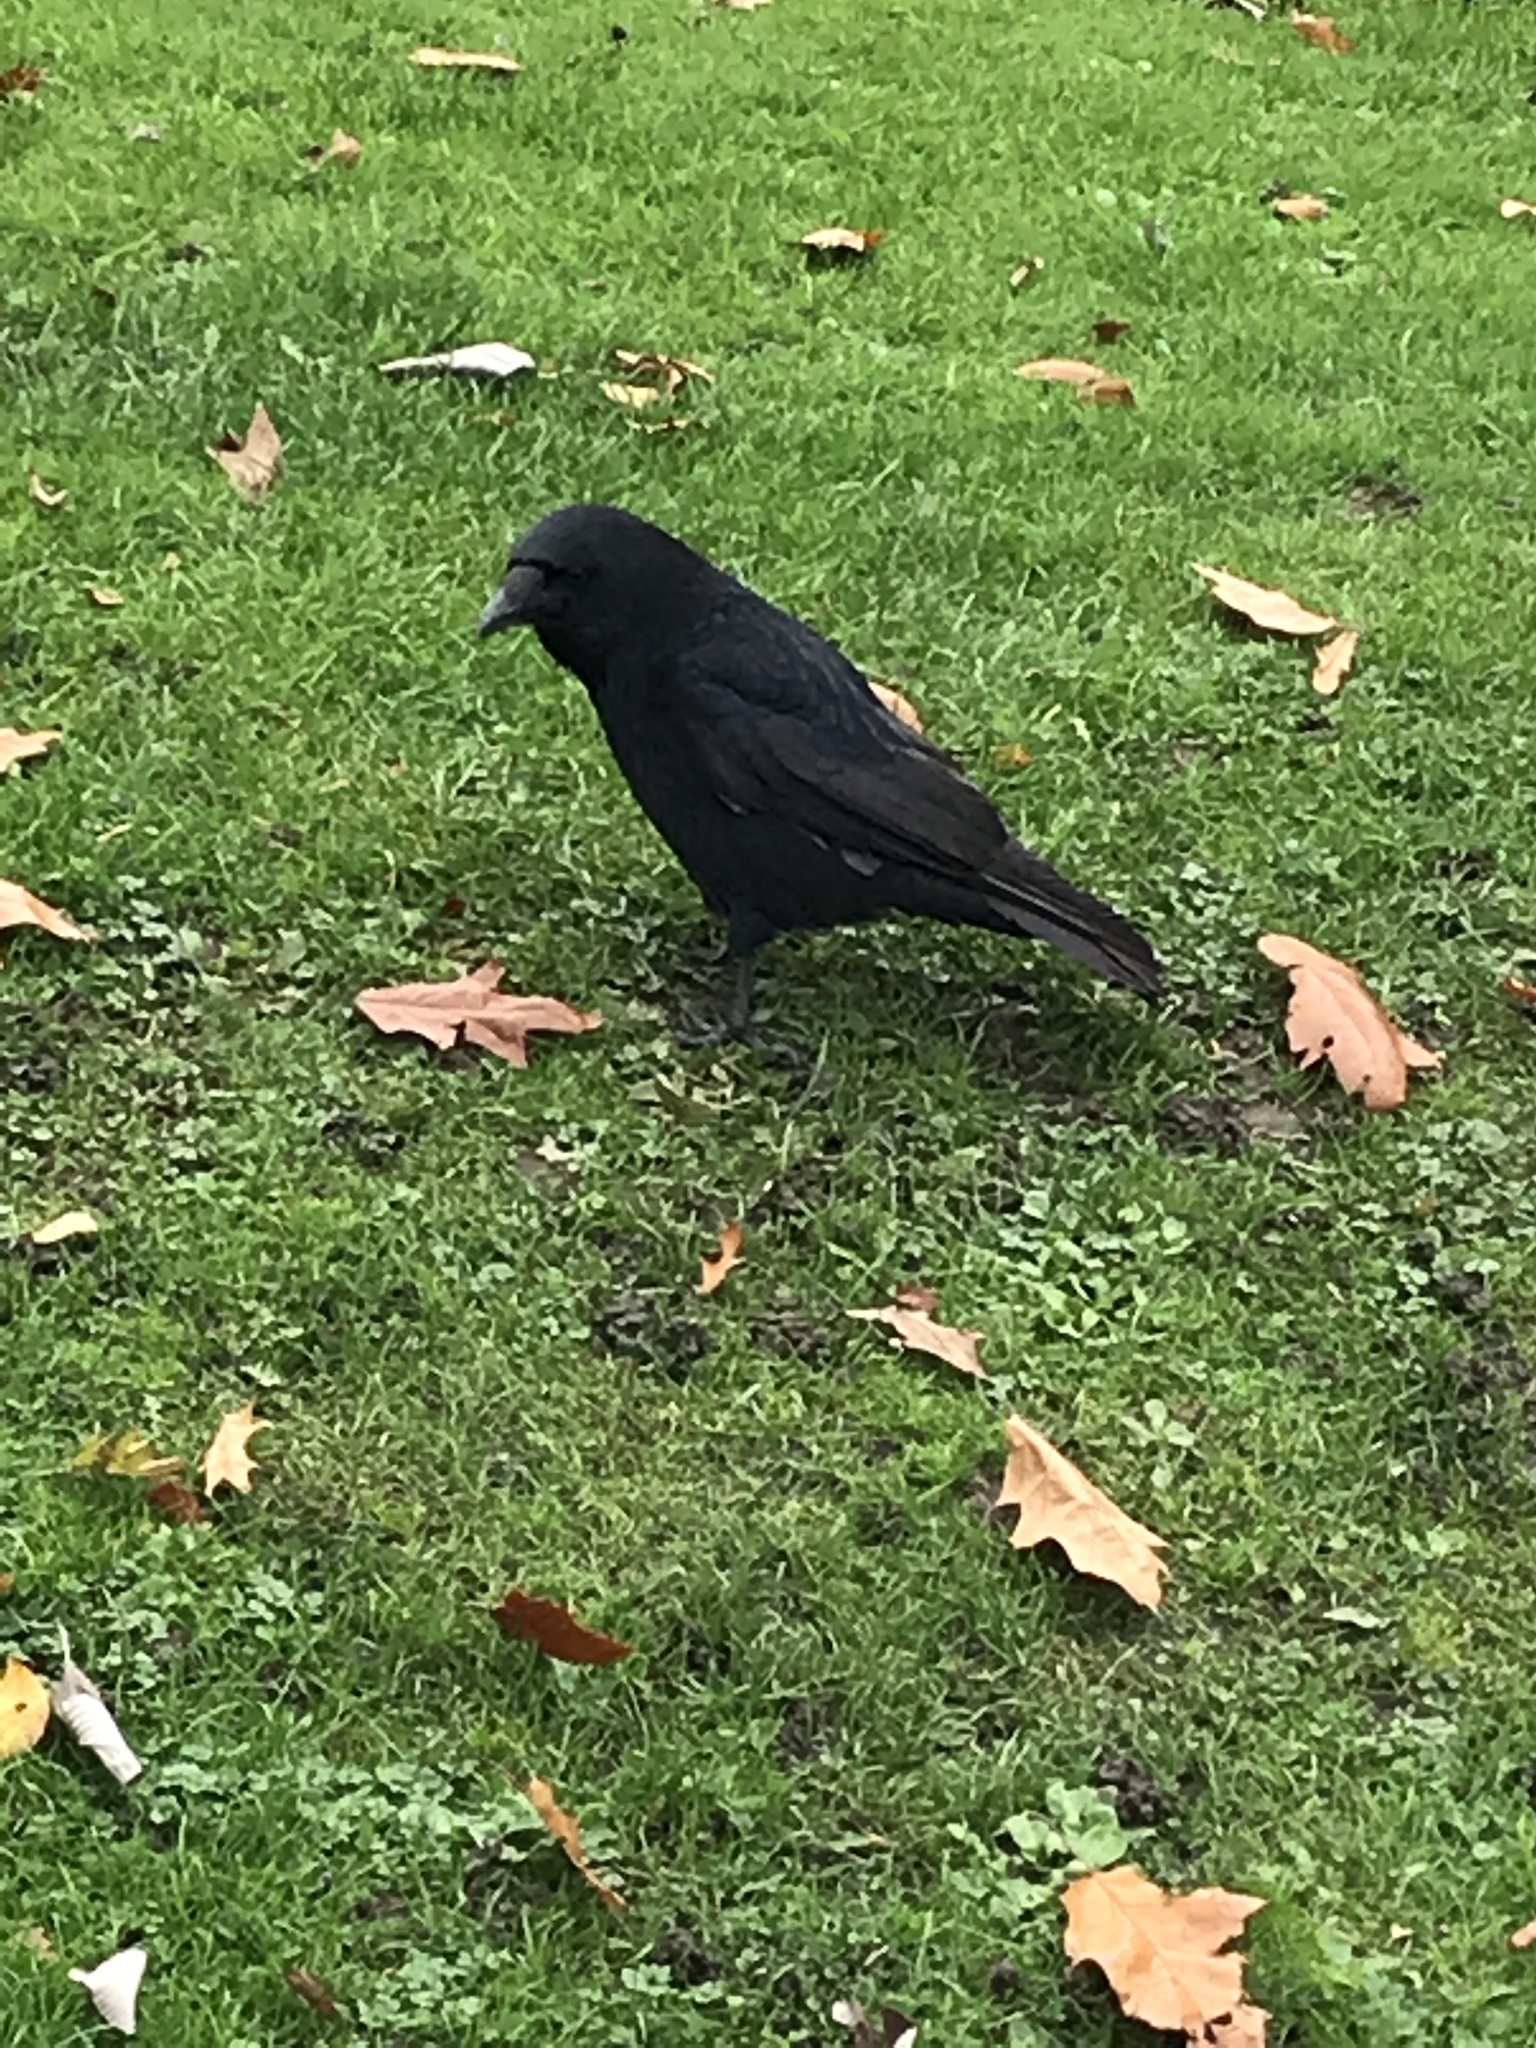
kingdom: Animalia
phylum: Chordata
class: Aves
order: Passeriformes
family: Corvidae
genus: Corvus
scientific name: Corvus corone
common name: Carrion crow
